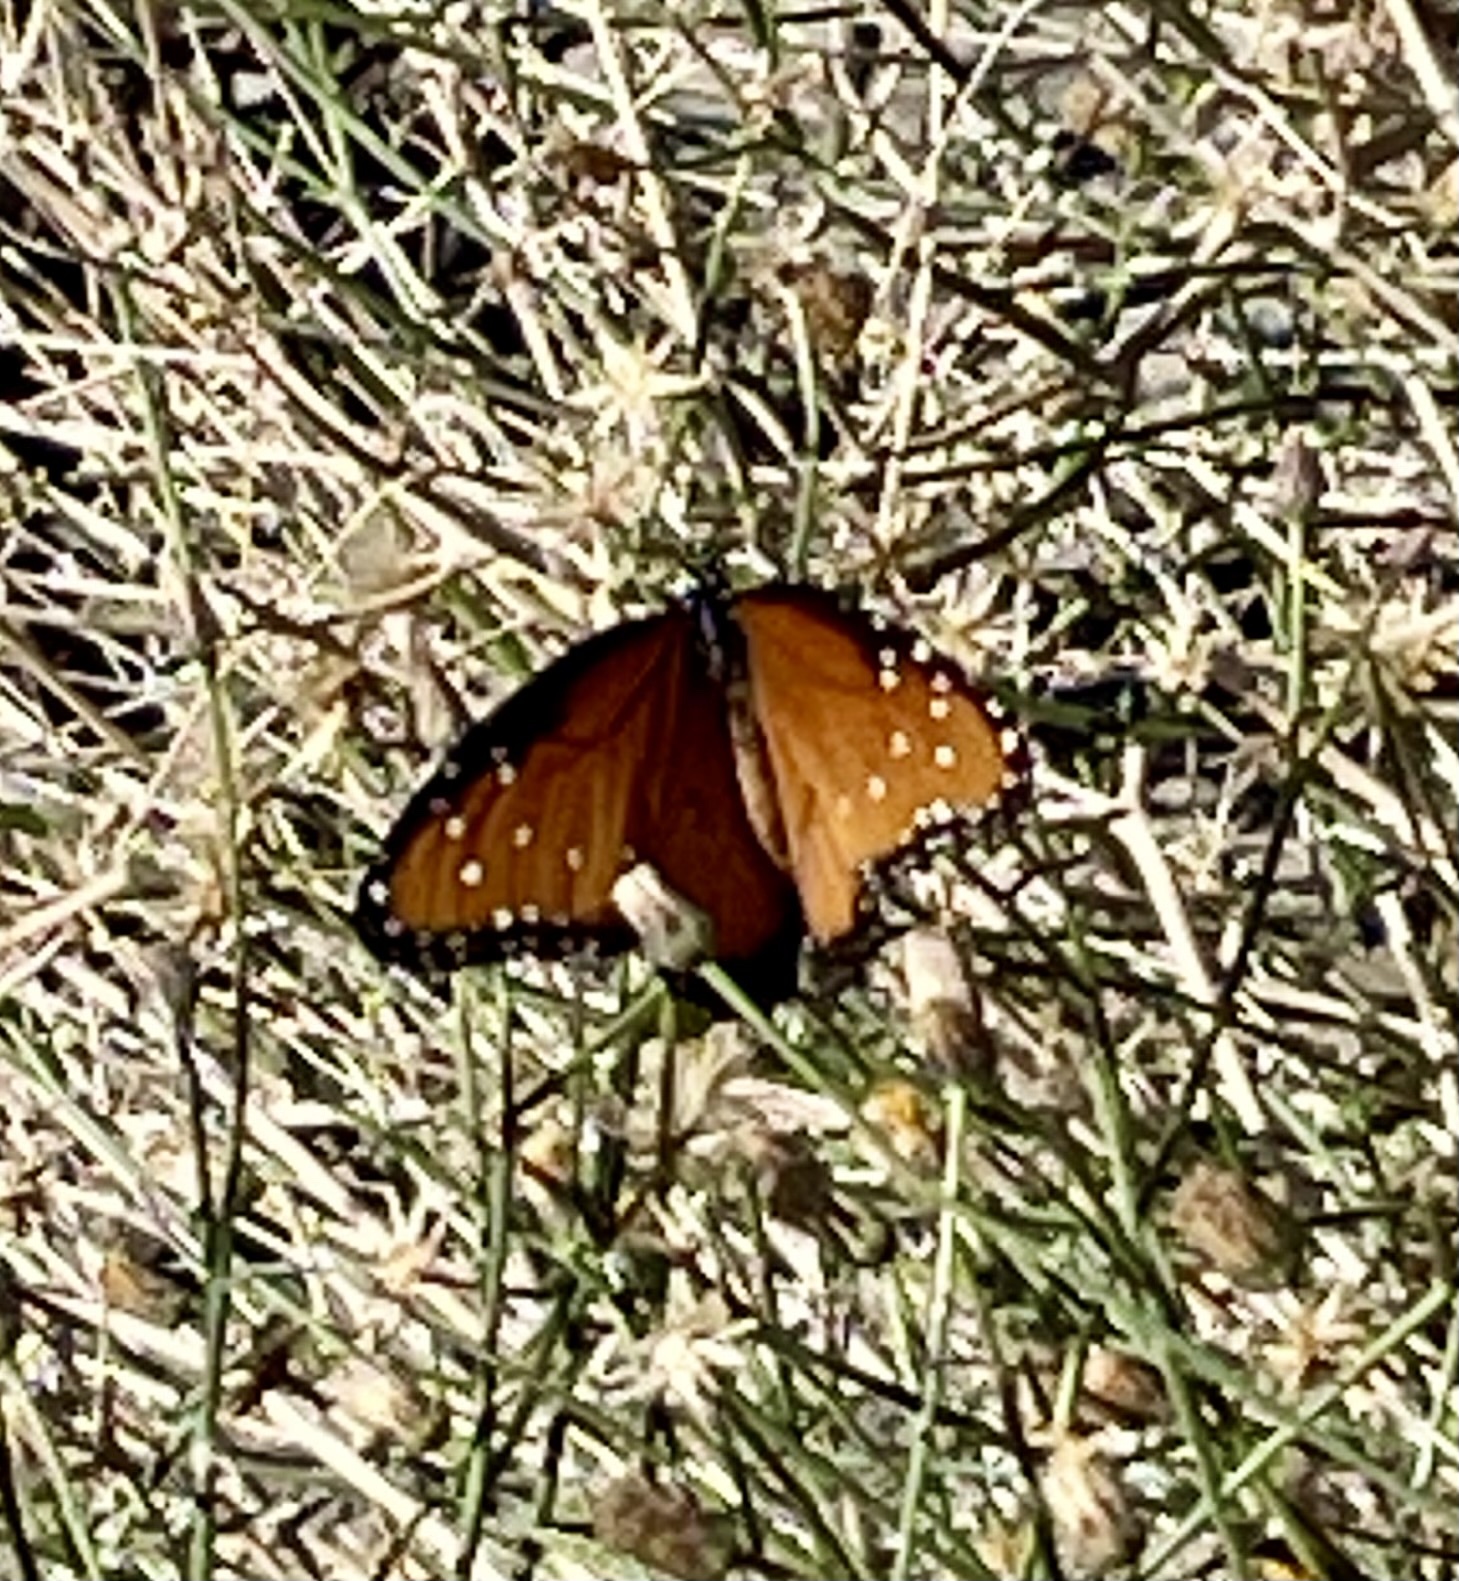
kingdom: Animalia
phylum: Arthropoda
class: Insecta
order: Lepidoptera
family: Nymphalidae
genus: Danaus
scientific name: Danaus gilippus
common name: Queen
